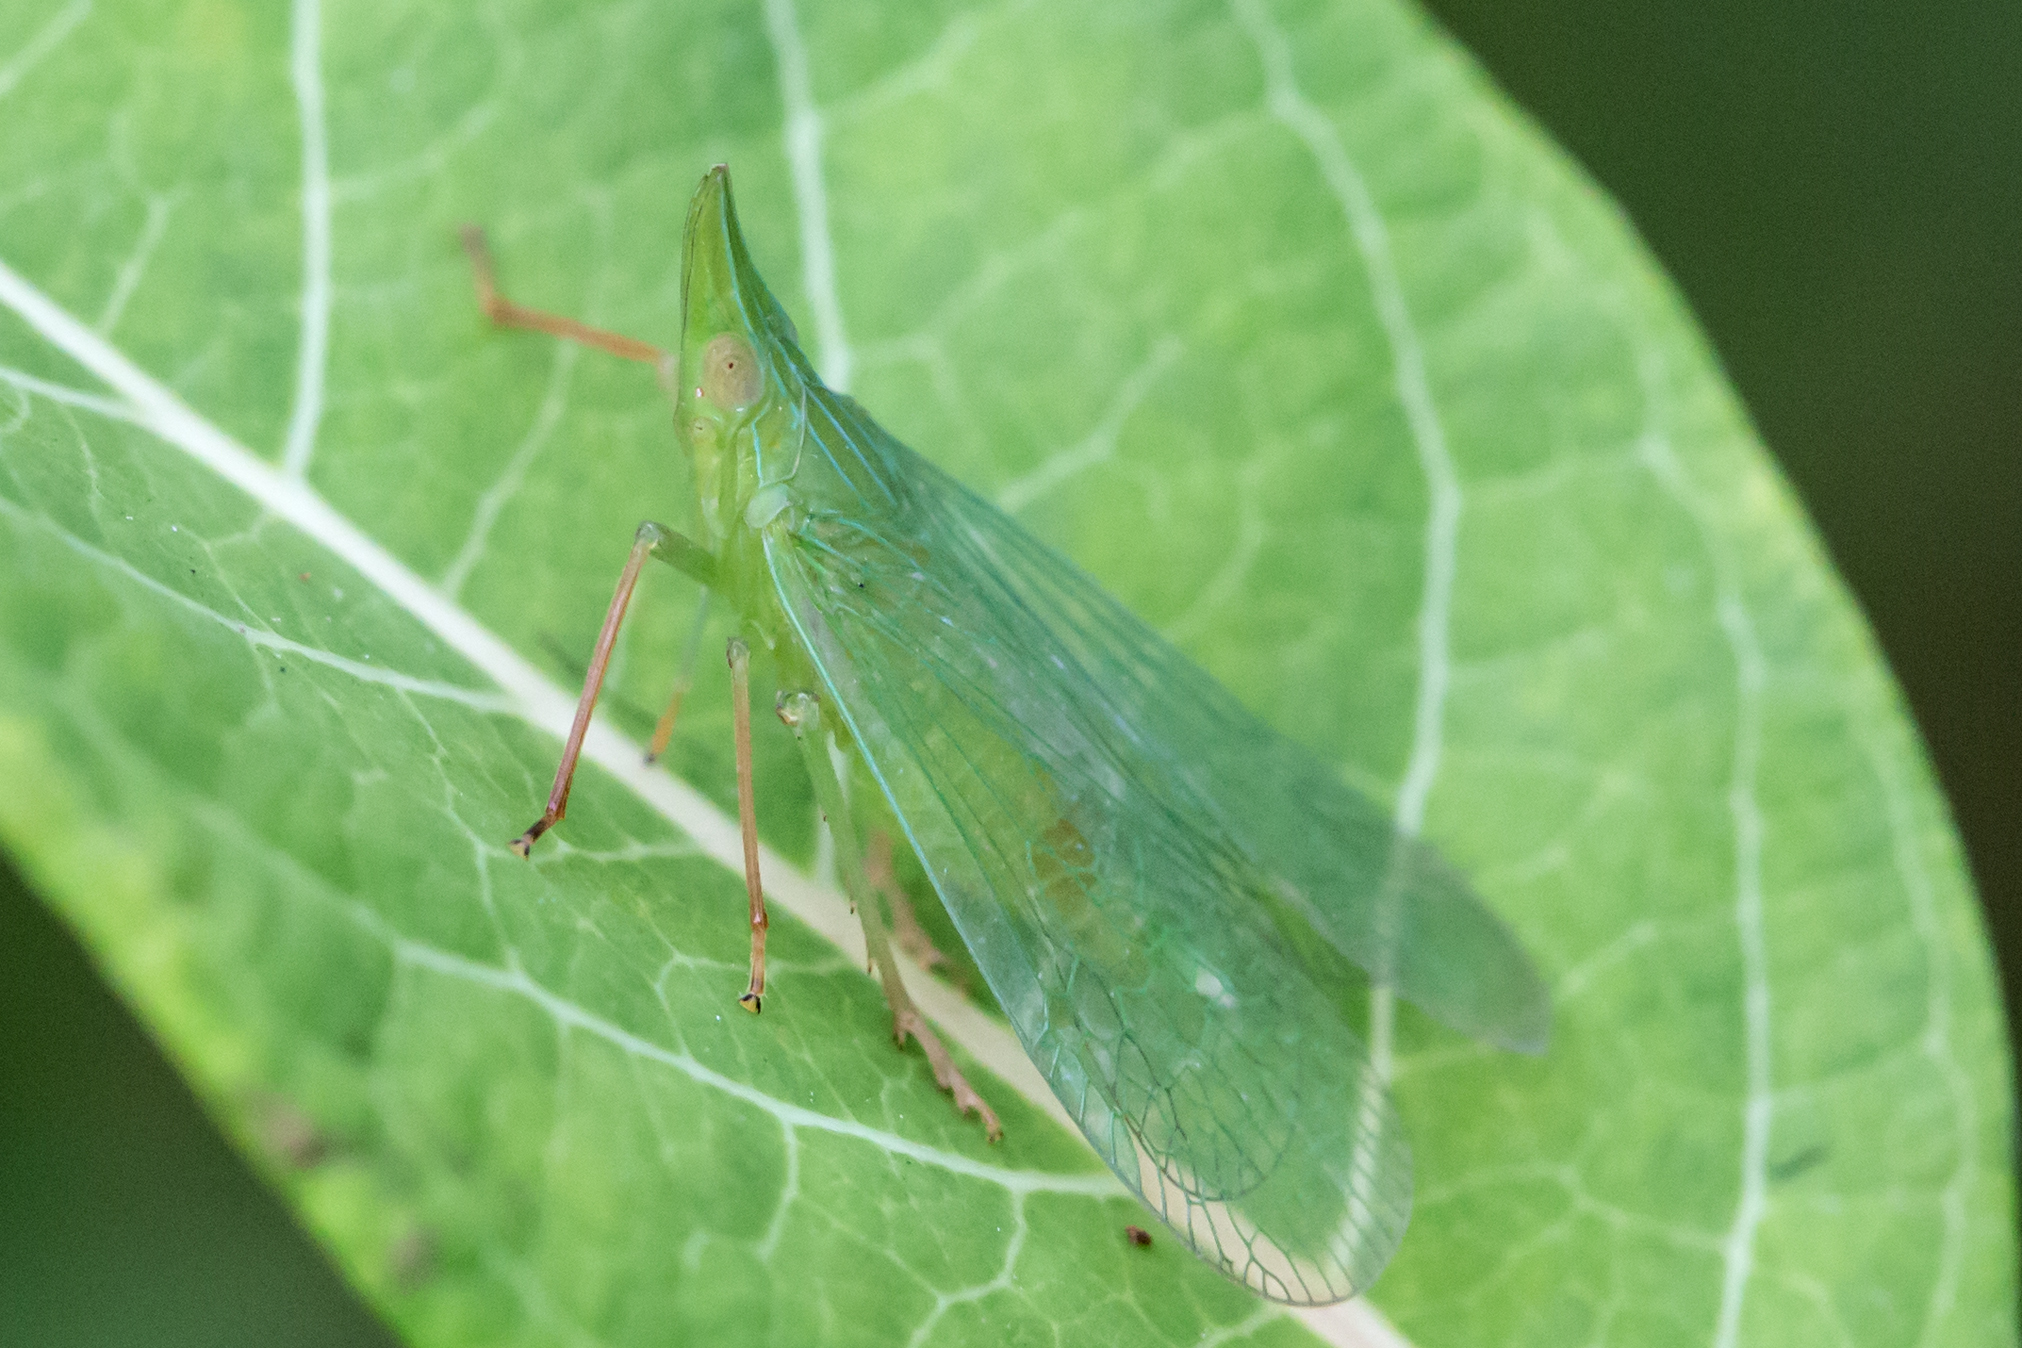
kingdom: Animalia
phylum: Arthropoda
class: Insecta
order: Hemiptera
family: Dictyopharidae
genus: Rhynchomitra
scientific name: Rhynchomitra microrhina
